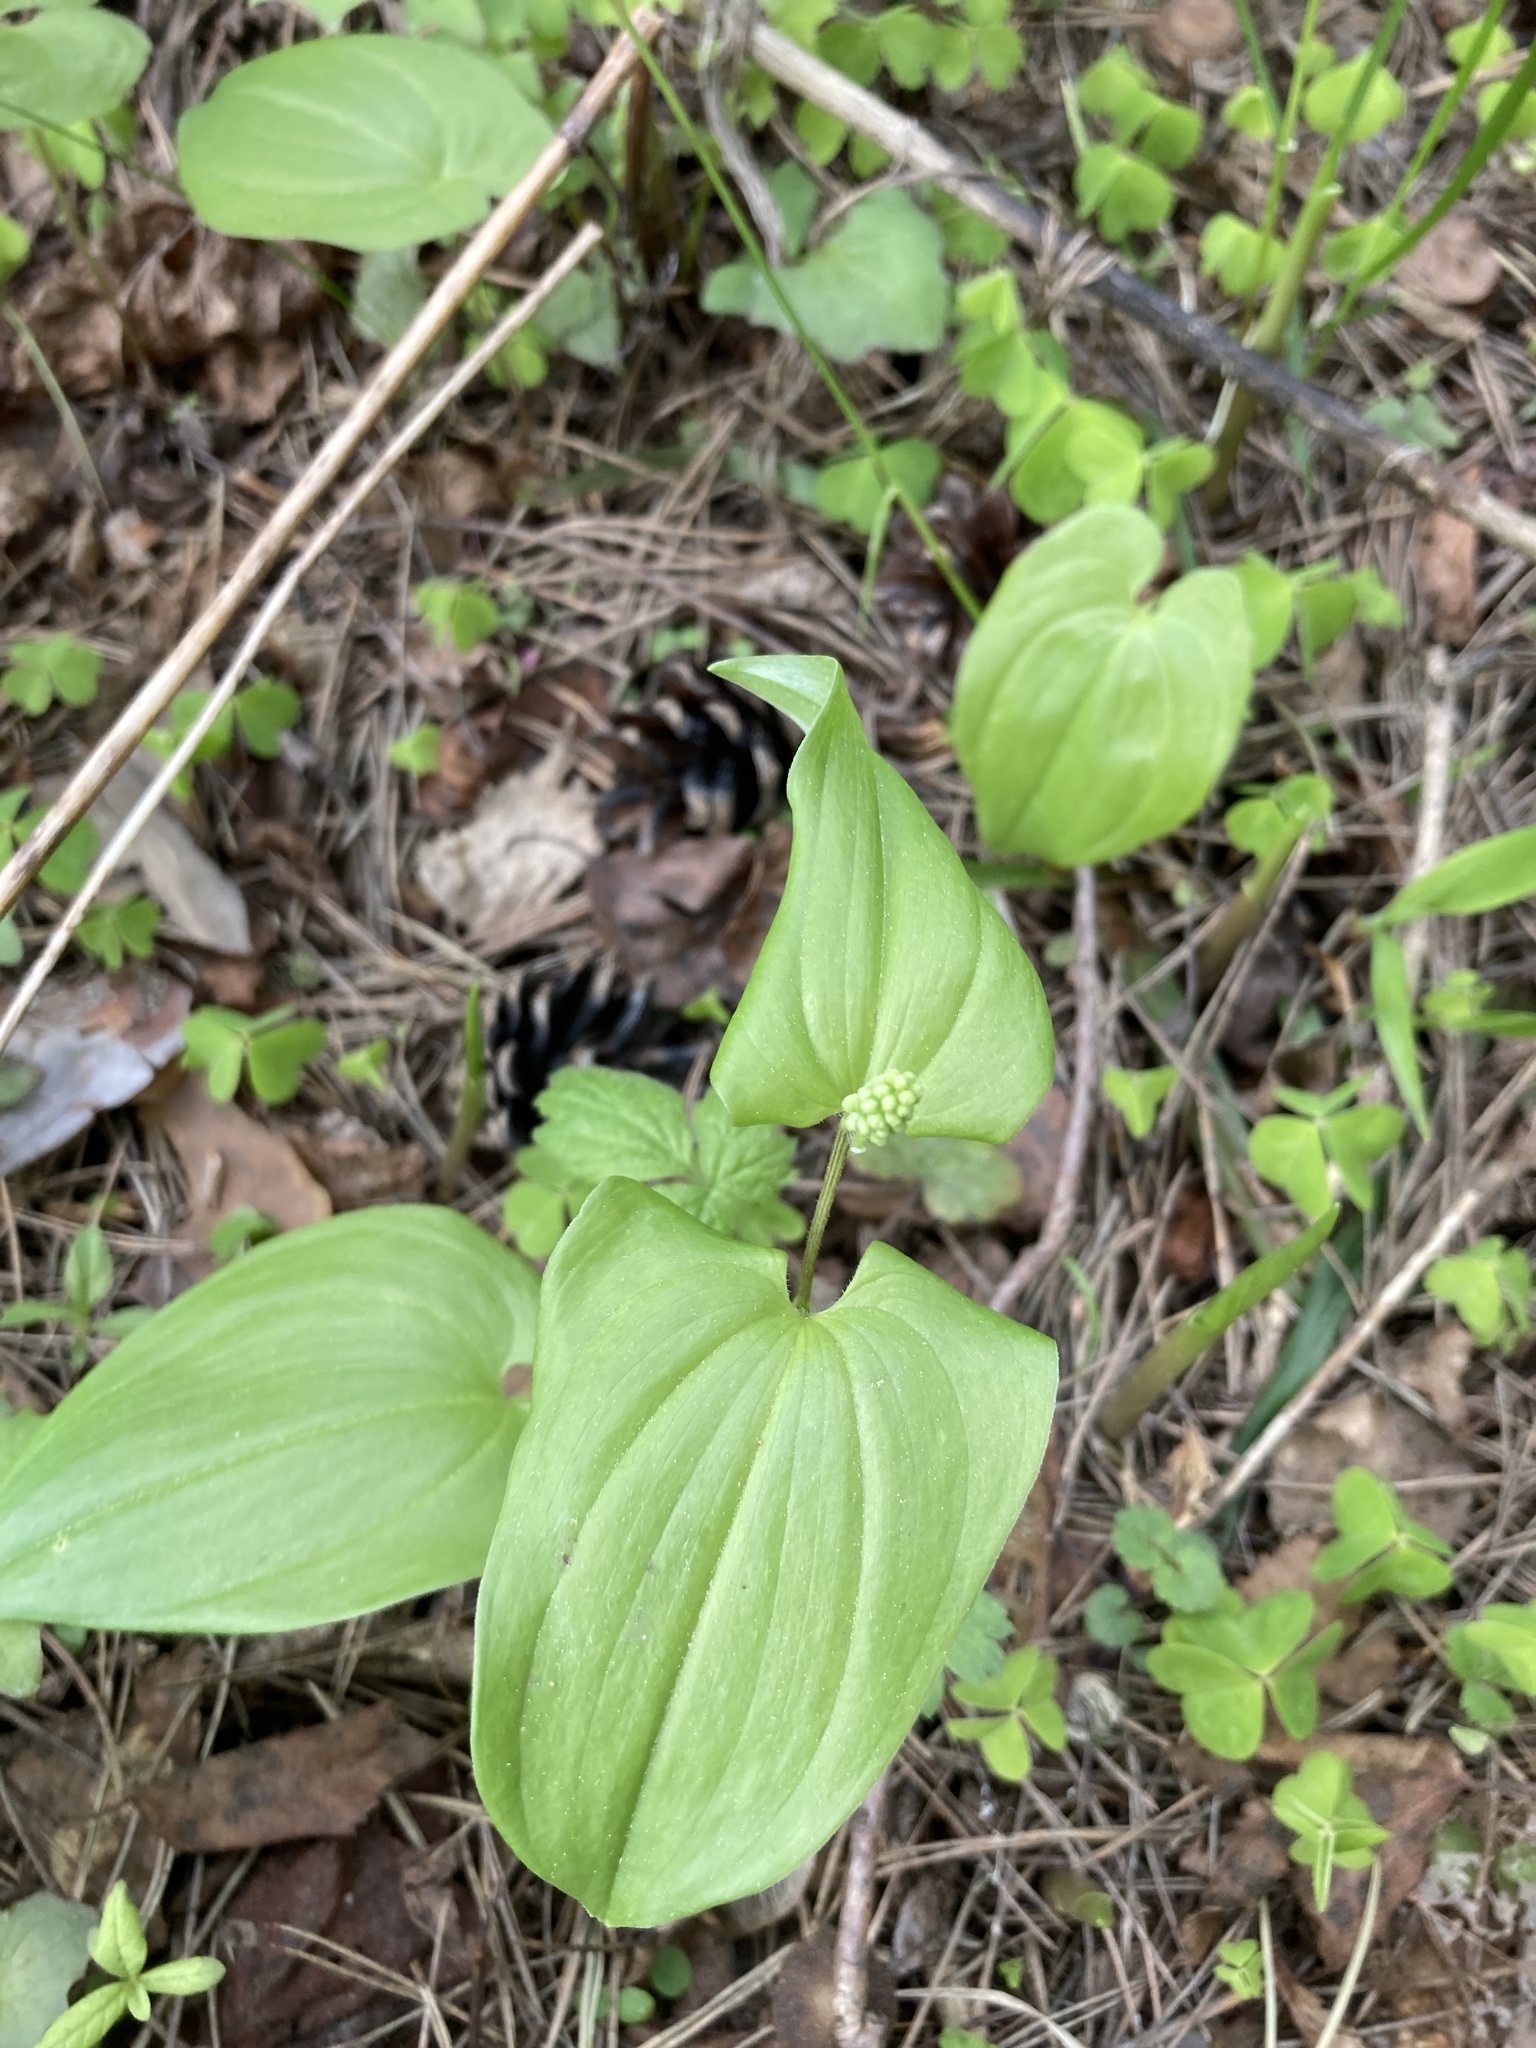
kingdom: Plantae
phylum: Tracheophyta
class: Liliopsida
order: Asparagales
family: Asparagaceae
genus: Maianthemum
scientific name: Maianthemum bifolium
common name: May lily
